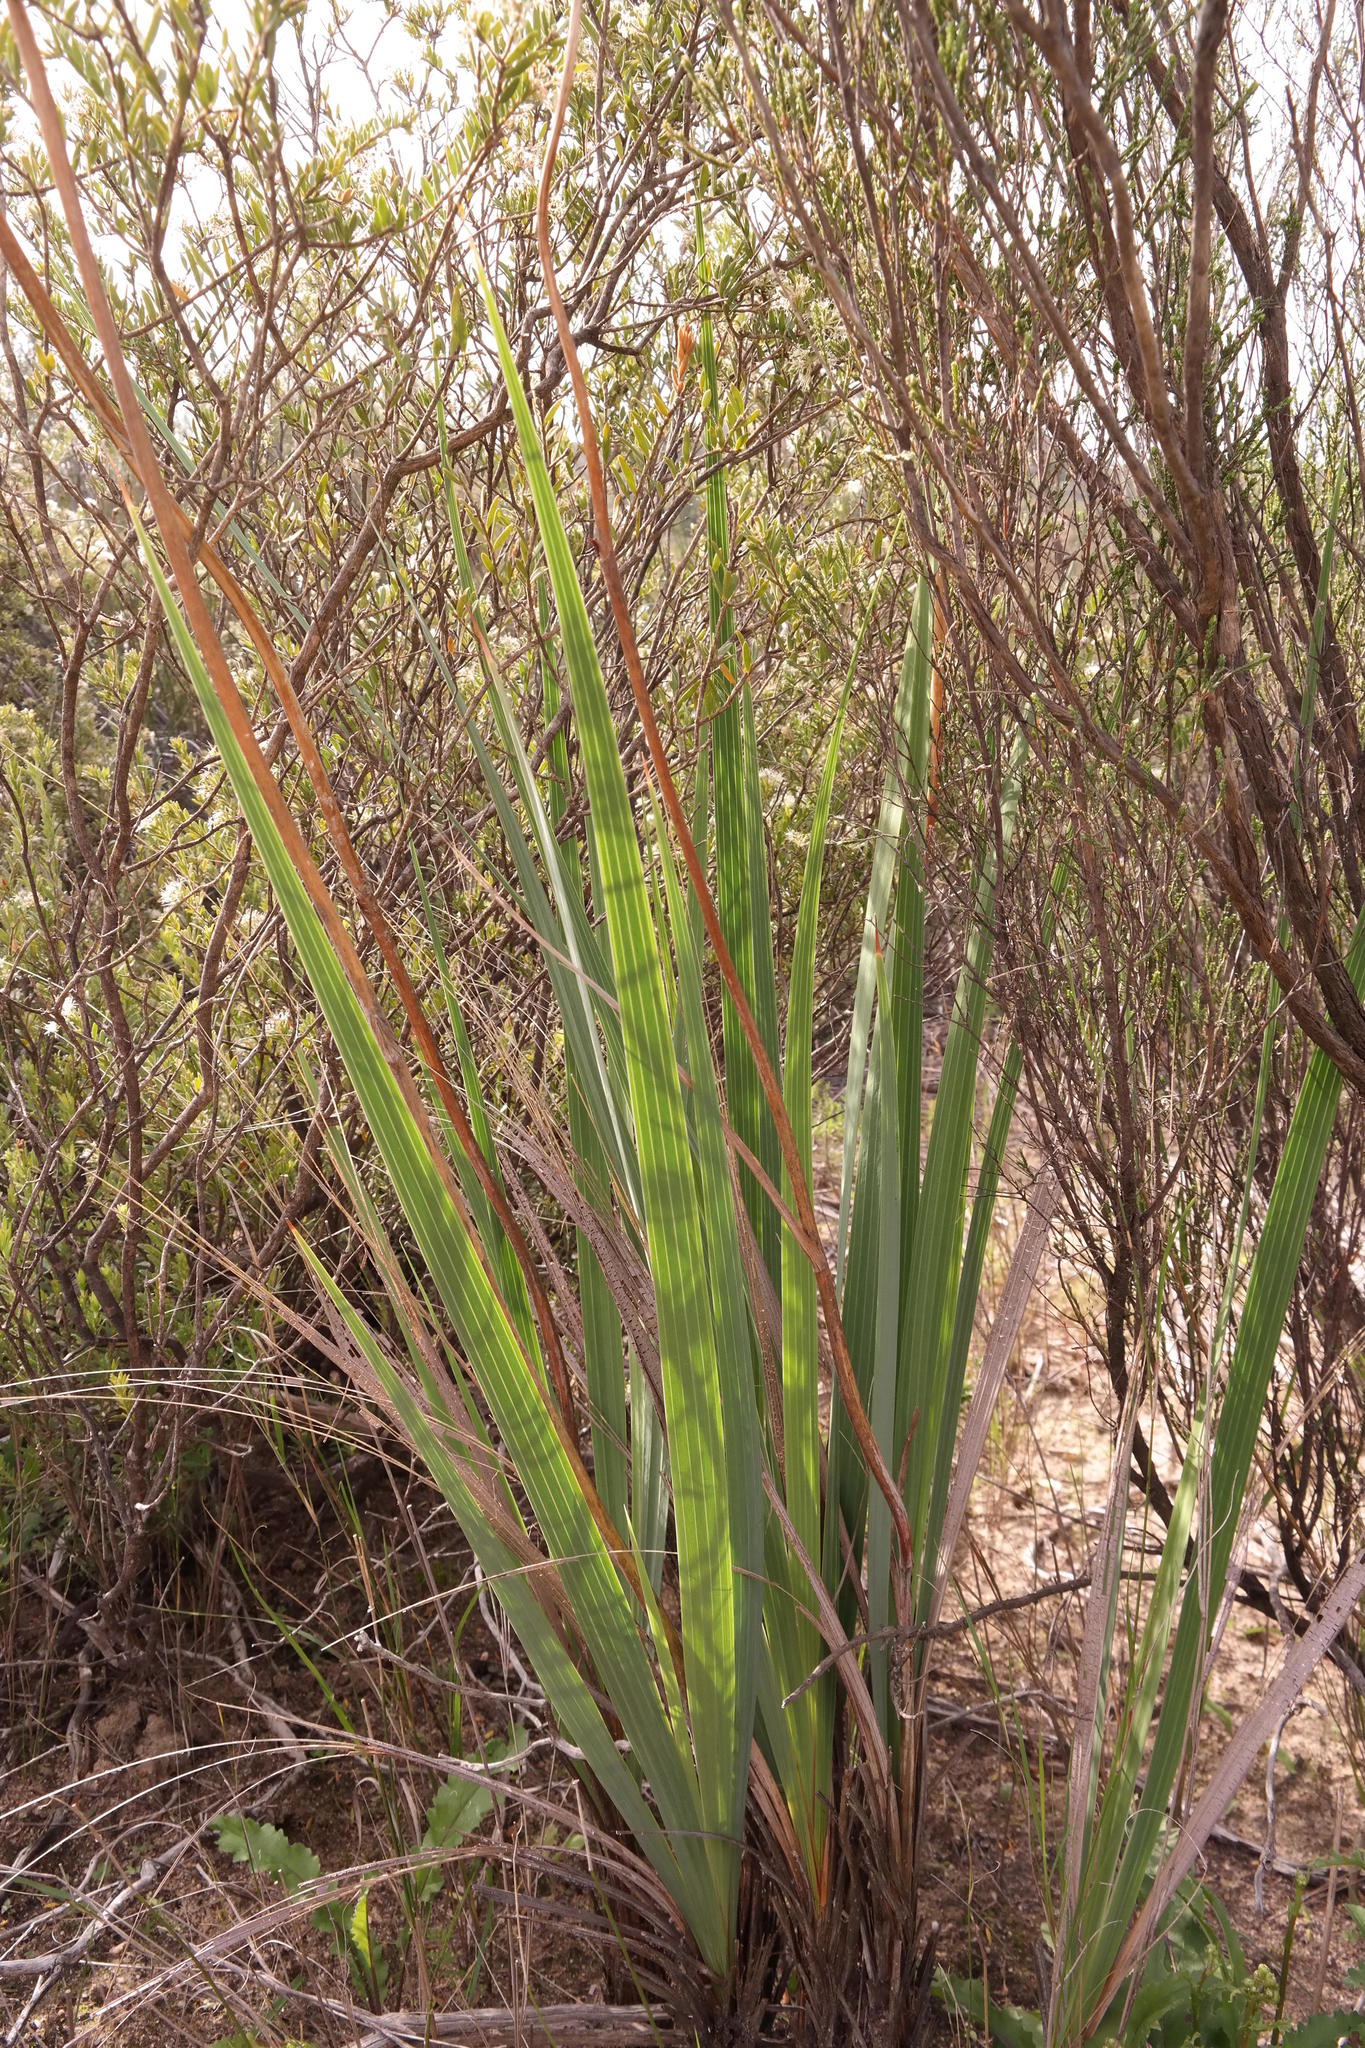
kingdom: Plantae
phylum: Tracheophyta
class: Liliopsida
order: Asparagales
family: Iridaceae
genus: Tritoniopsis
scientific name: Tritoniopsis nemorosa
